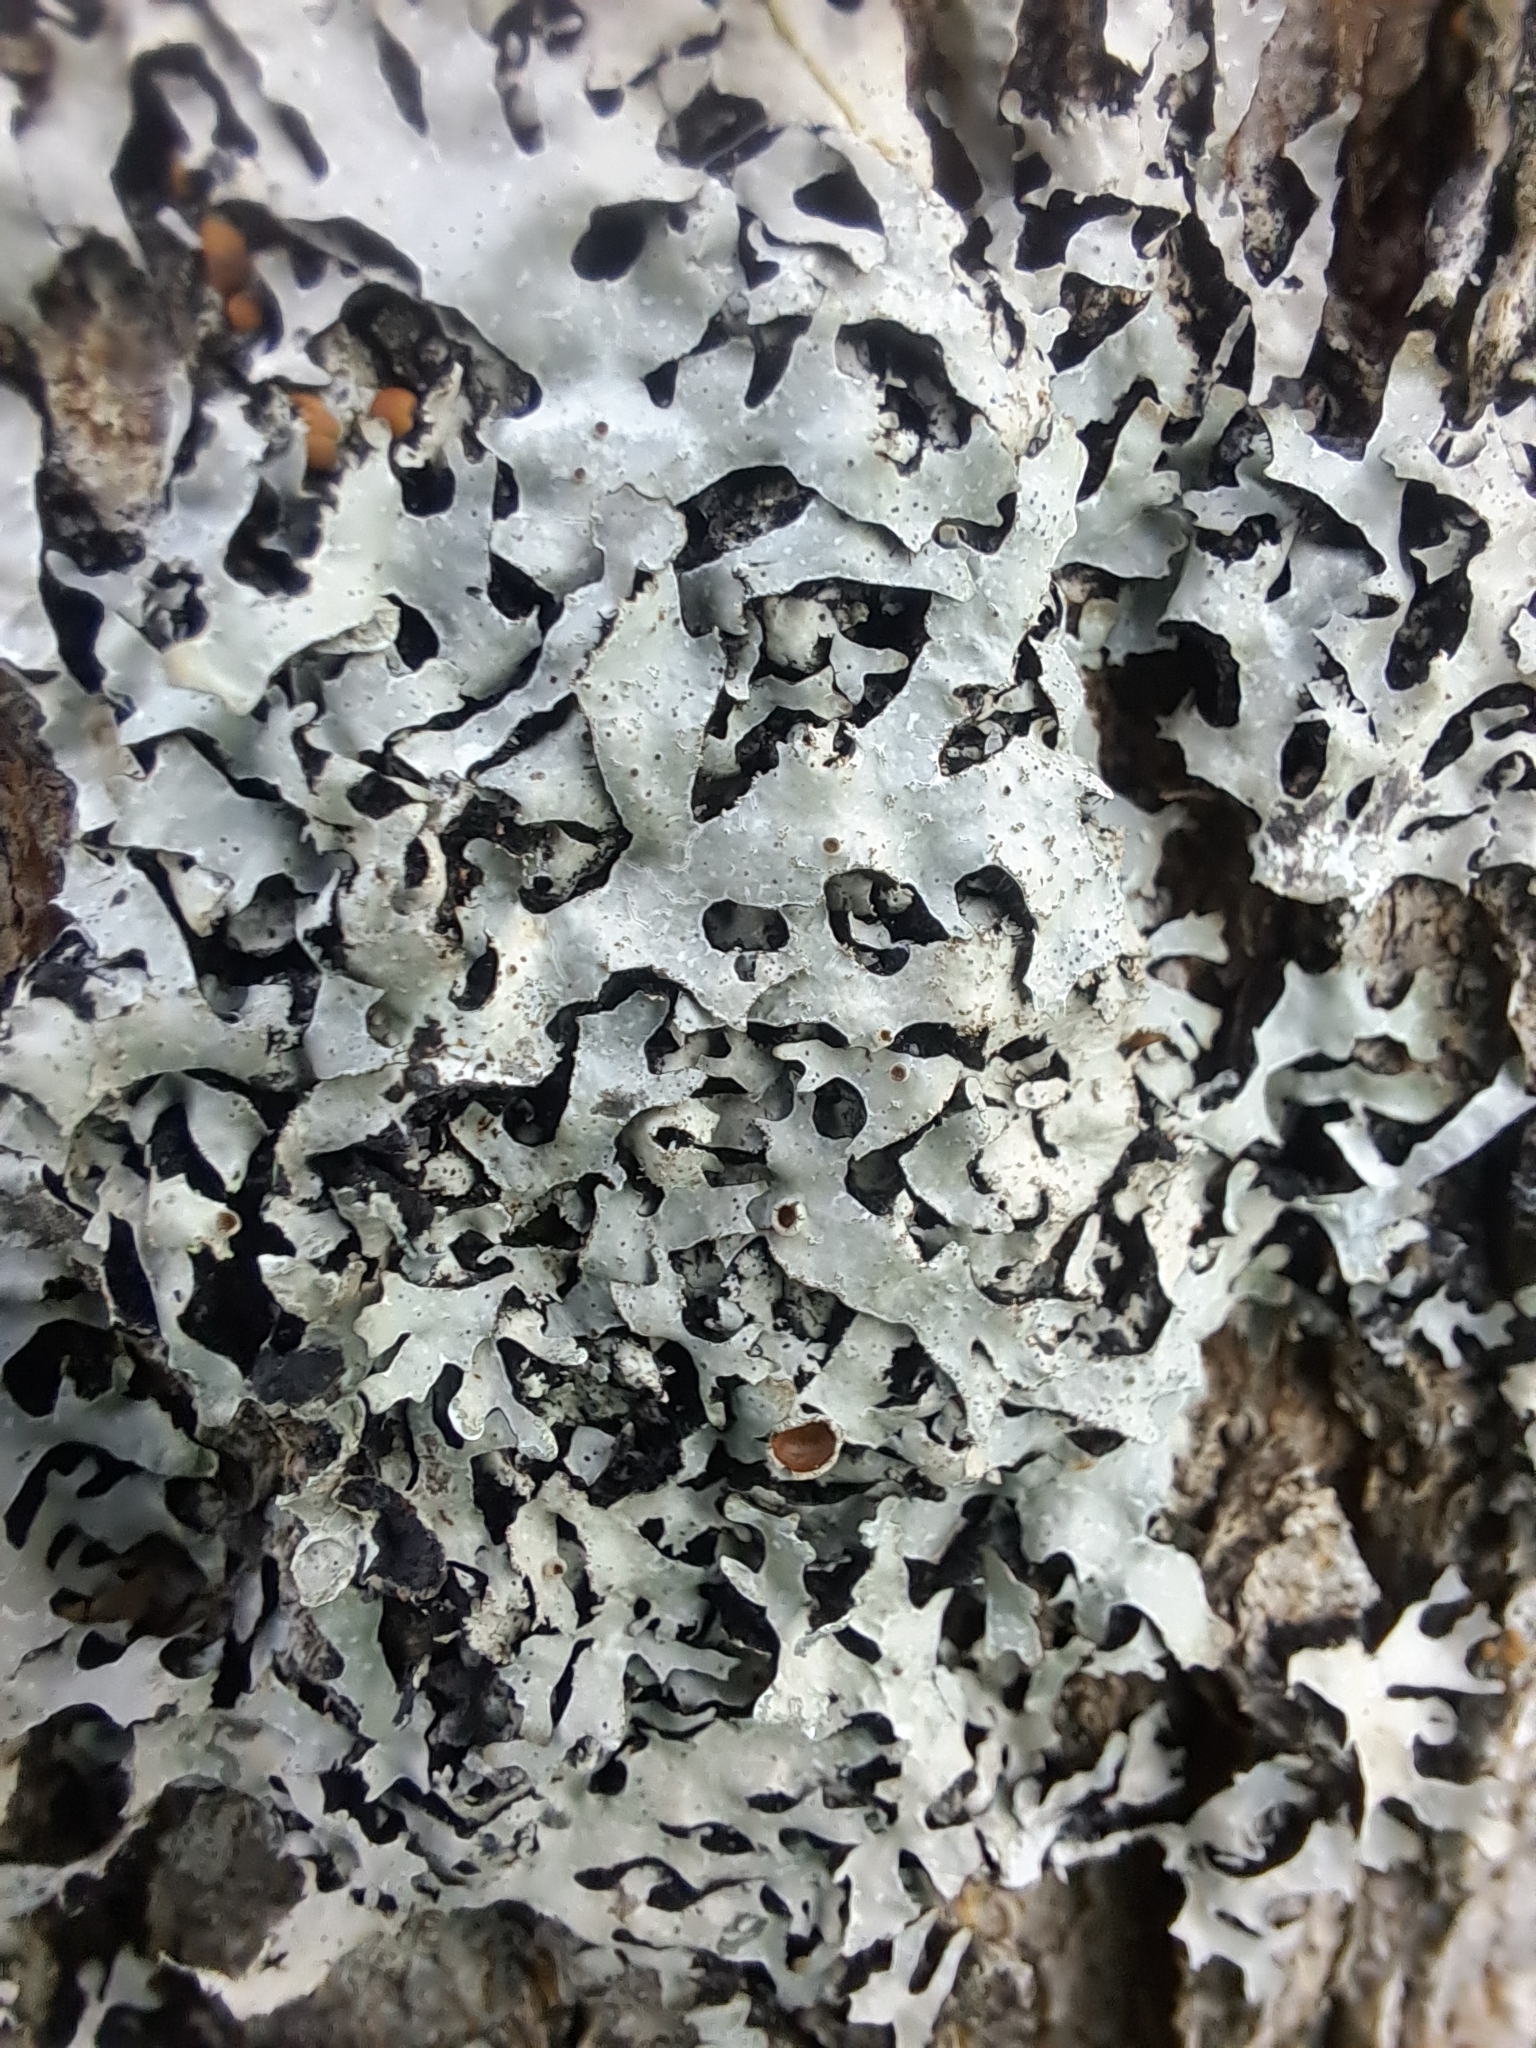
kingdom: Fungi
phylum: Ascomycota
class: Lecanoromycetes
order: Lecanorales
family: Parmeliaceae
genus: Parmelia
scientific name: Parmelia squarrosa
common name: Bottle brush shield lichen
